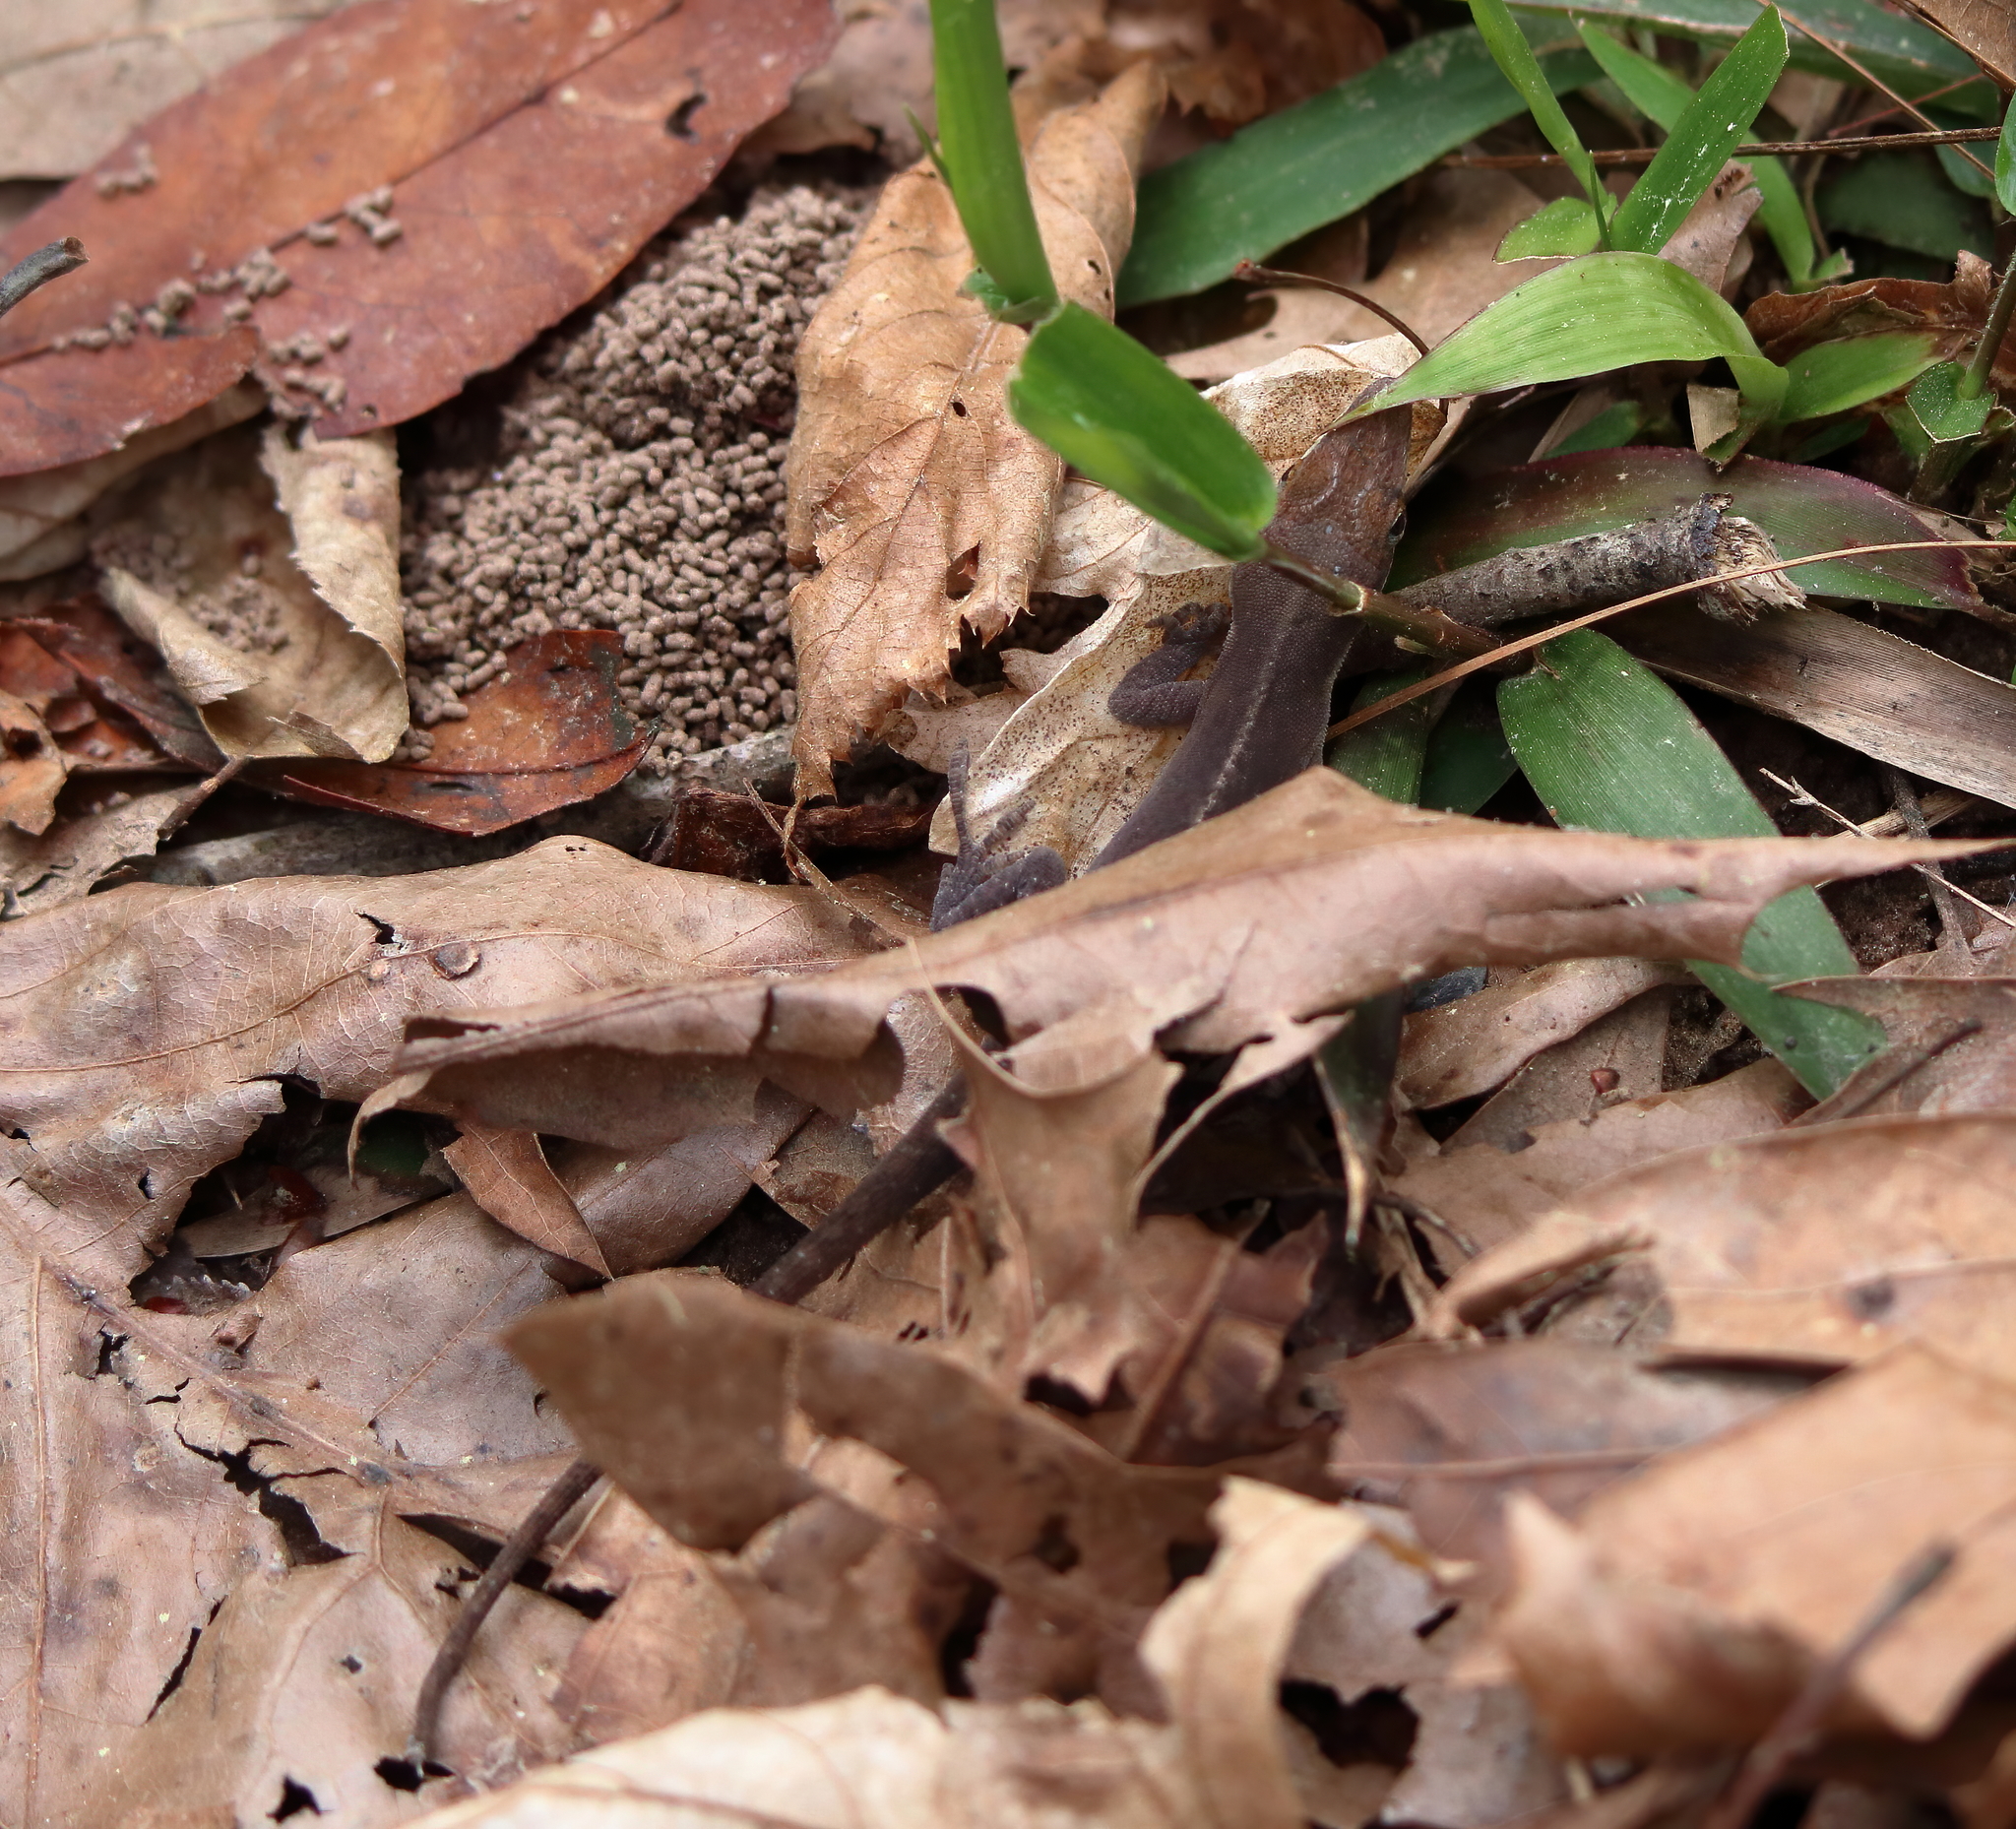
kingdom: Animalia
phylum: Chordata
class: Squamata
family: Dactyloidae
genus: Anolis
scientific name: Anolis carolinensis
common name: Green anole
